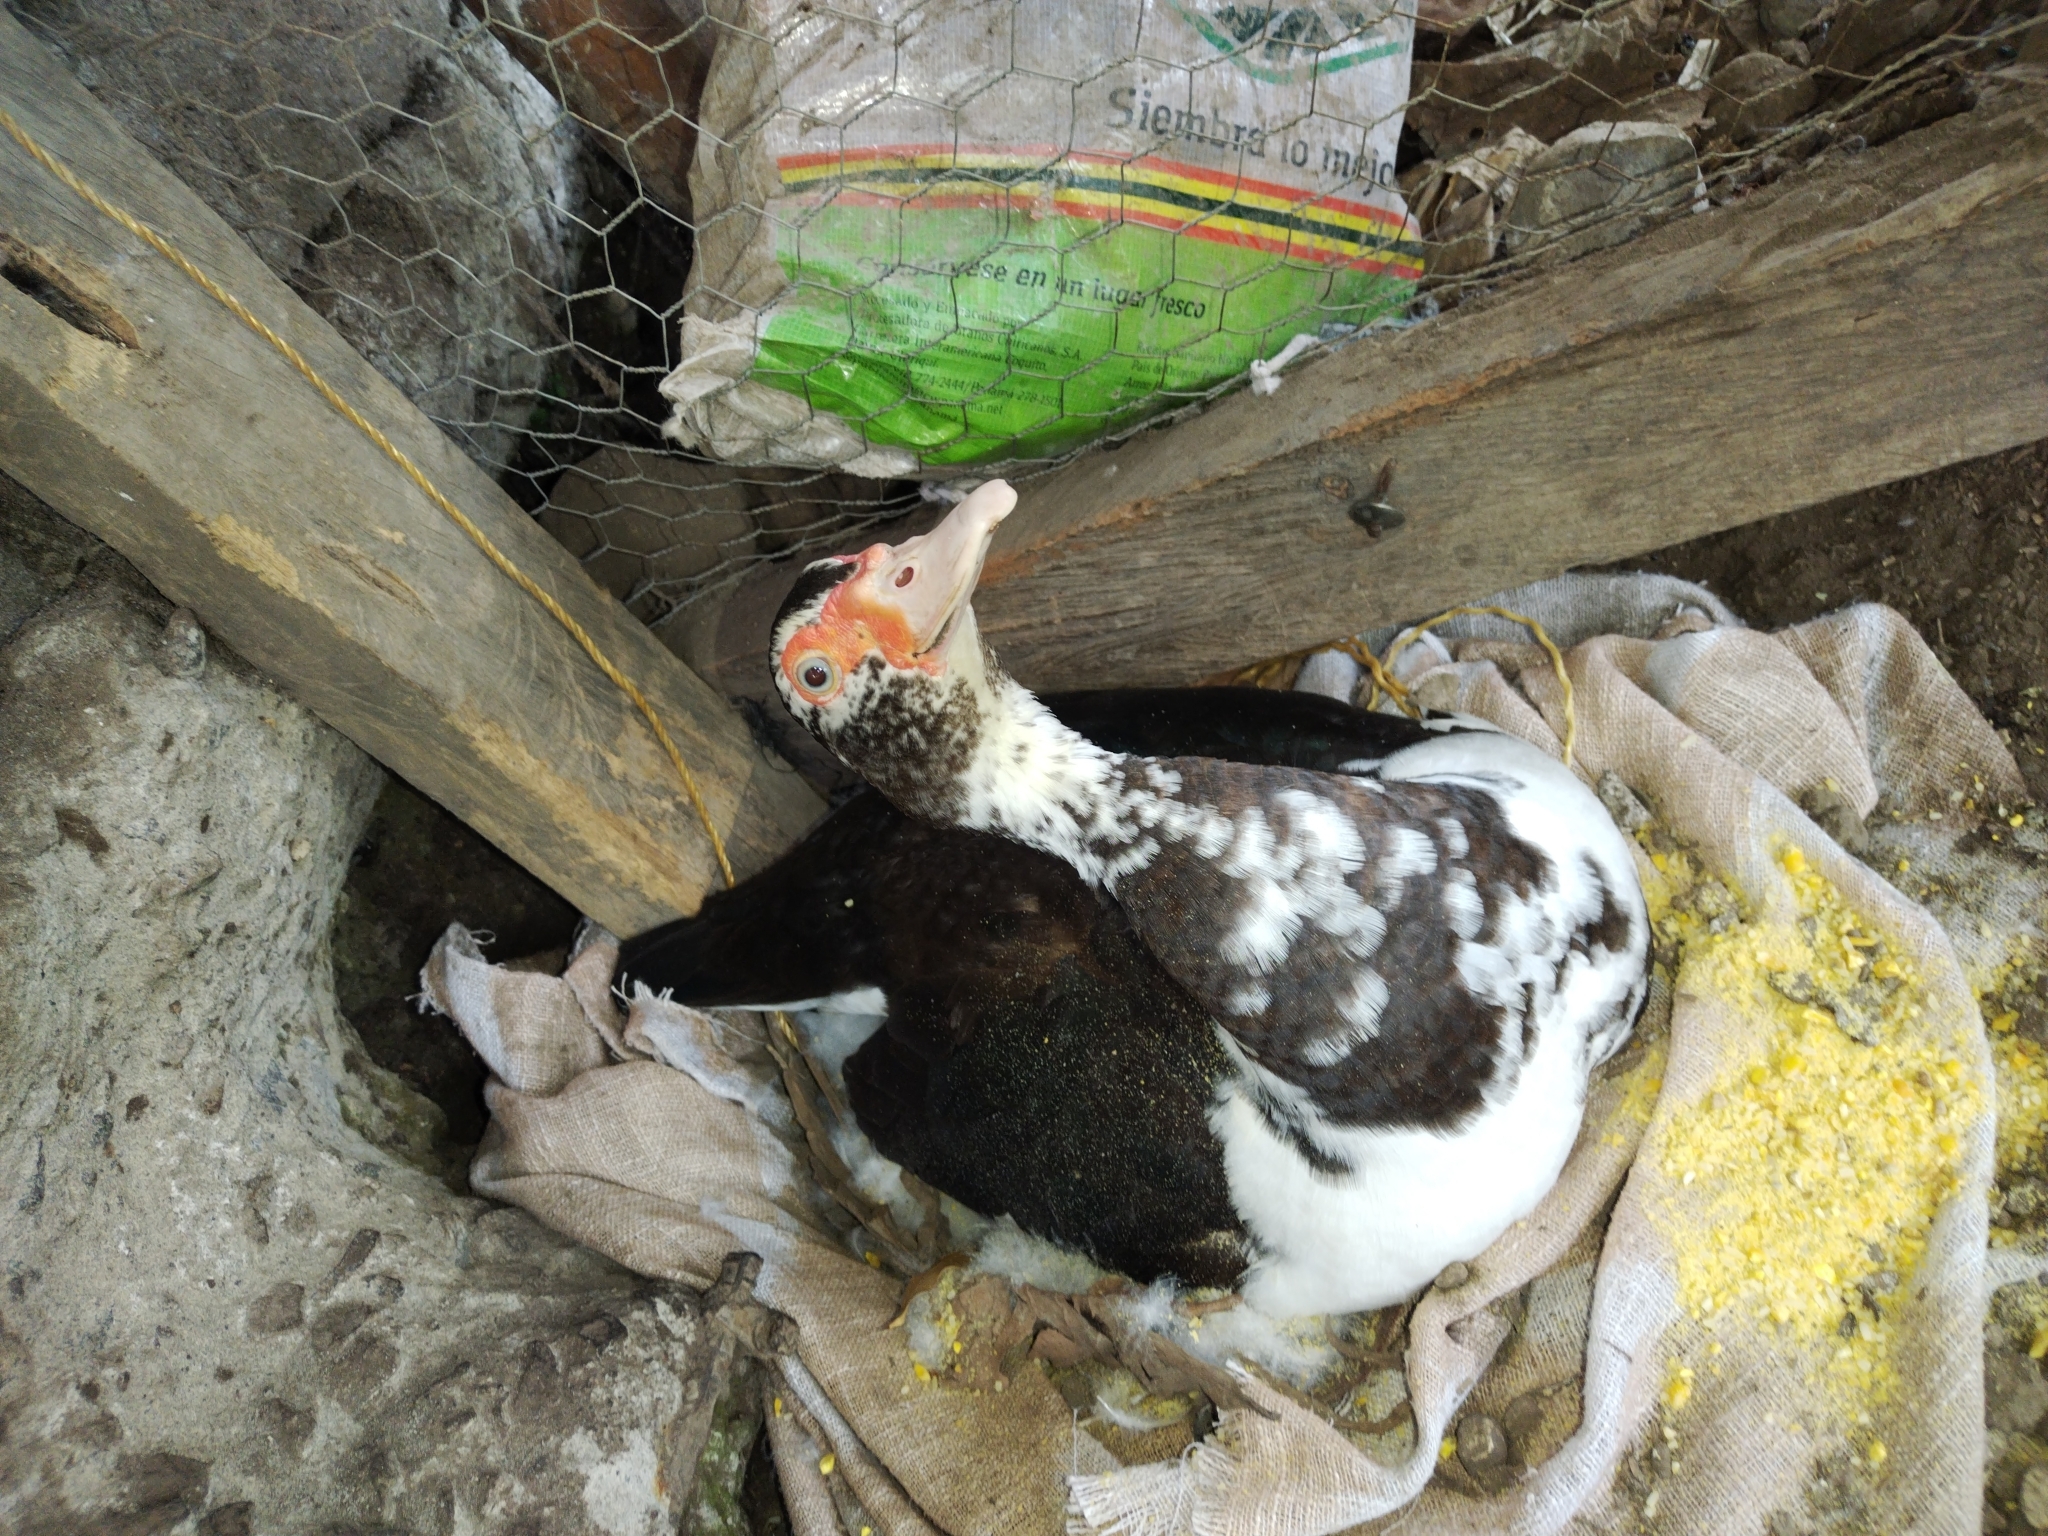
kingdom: Animalia
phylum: Chordata
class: Aves
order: Anseriformes
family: Anatidae
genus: Cairina
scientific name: Cairina moschata
